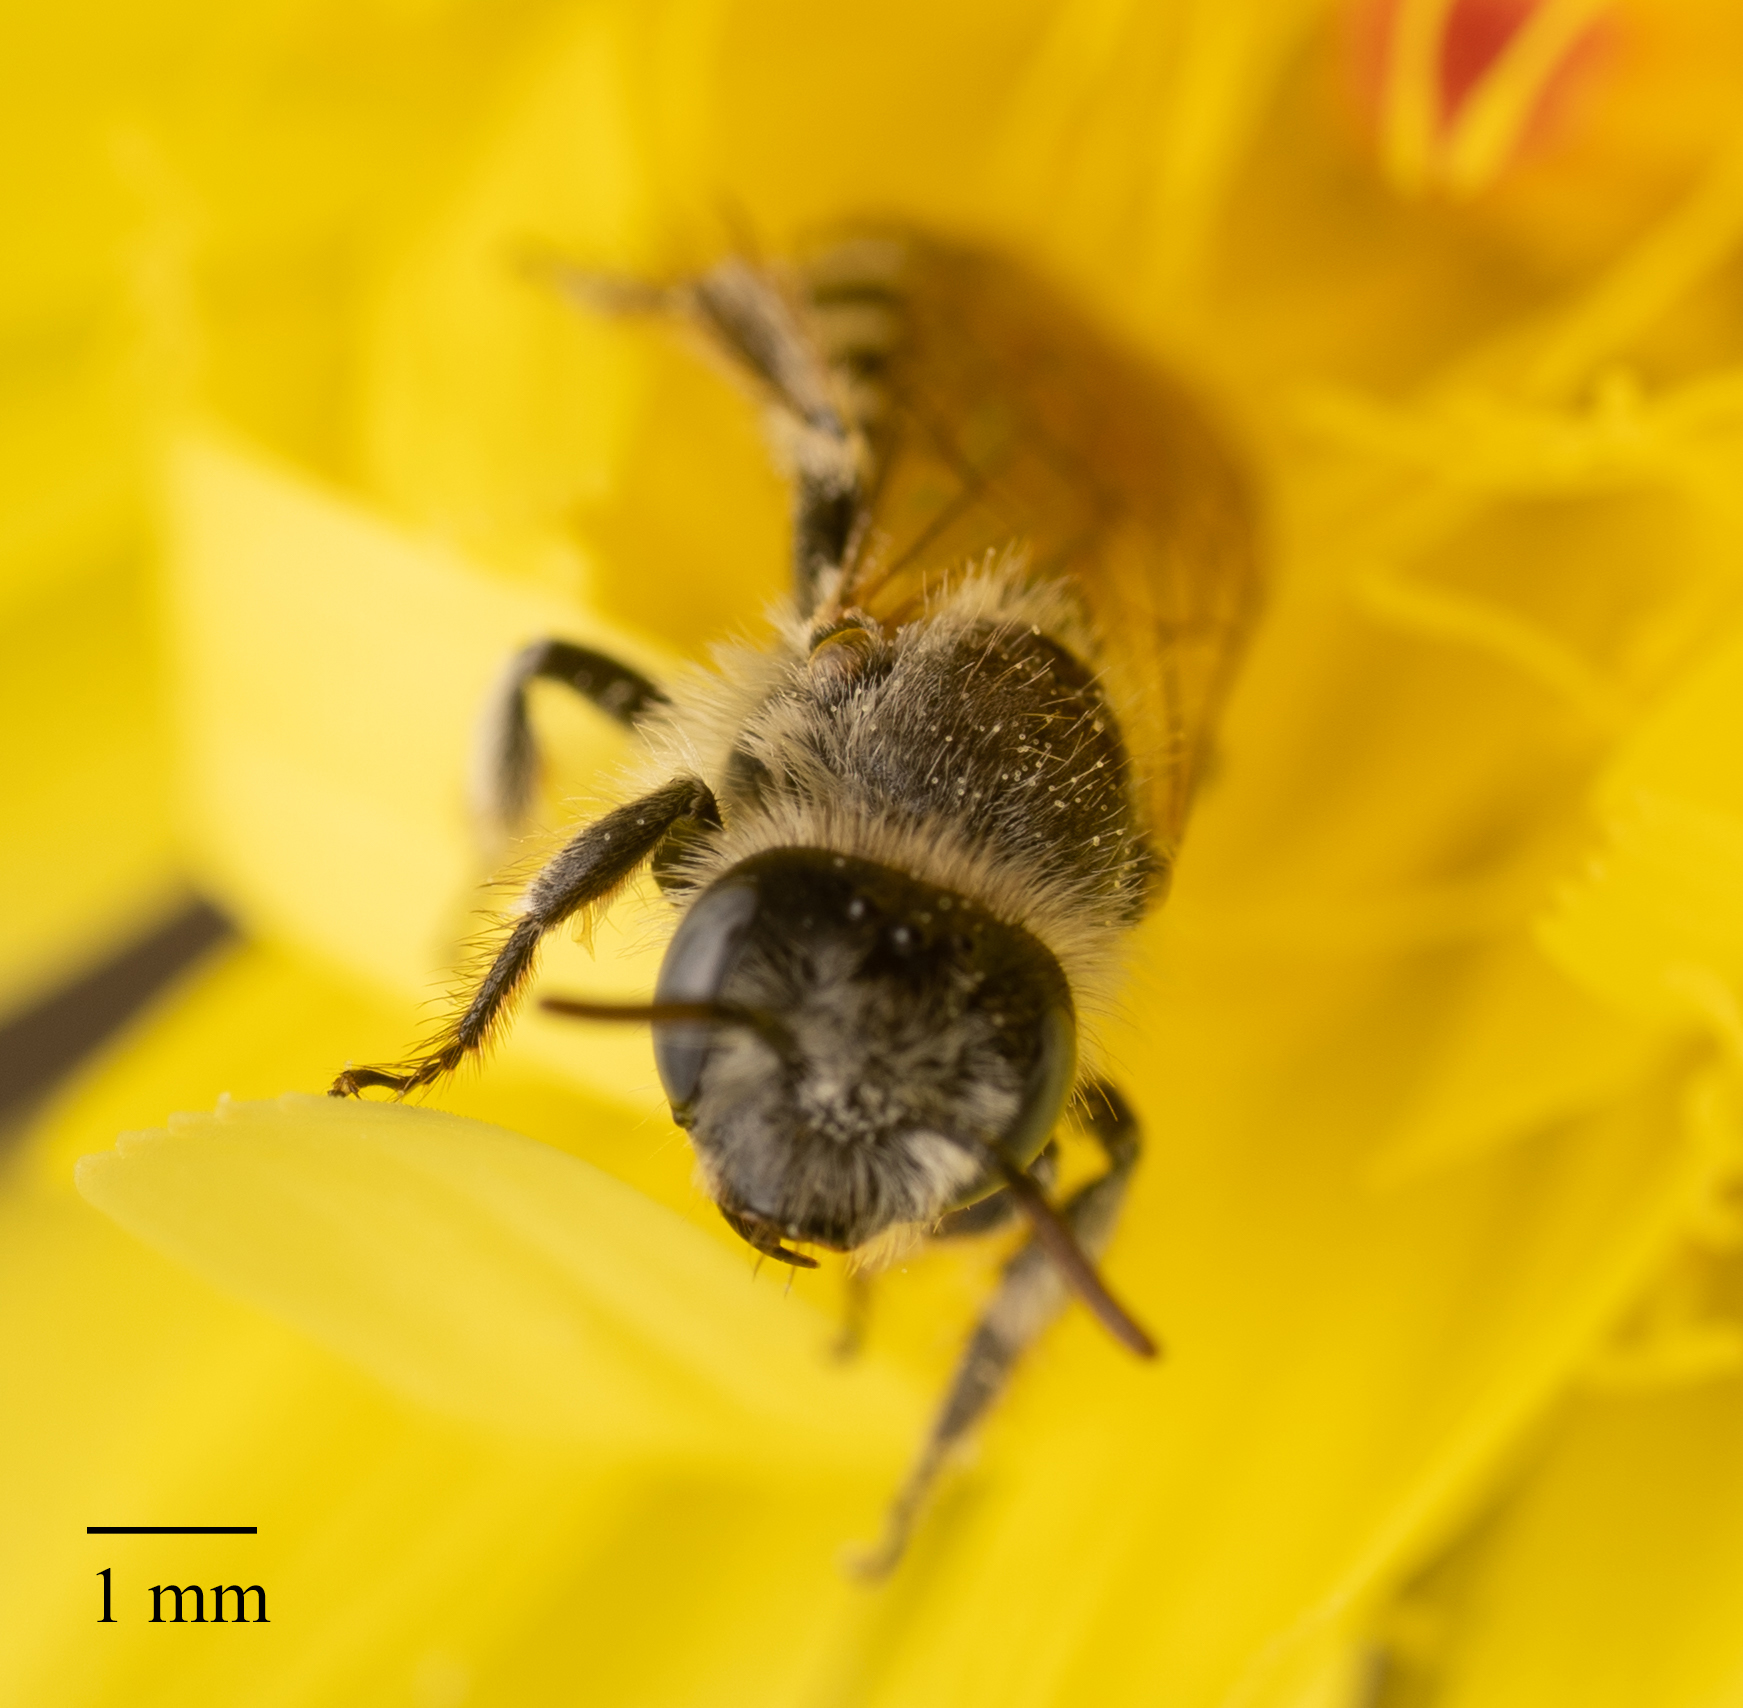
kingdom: Animalia
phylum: Arthropoda
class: Insecta
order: Hymenoptera
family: Melittidae
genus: Hesperapis
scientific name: Hesperapis
